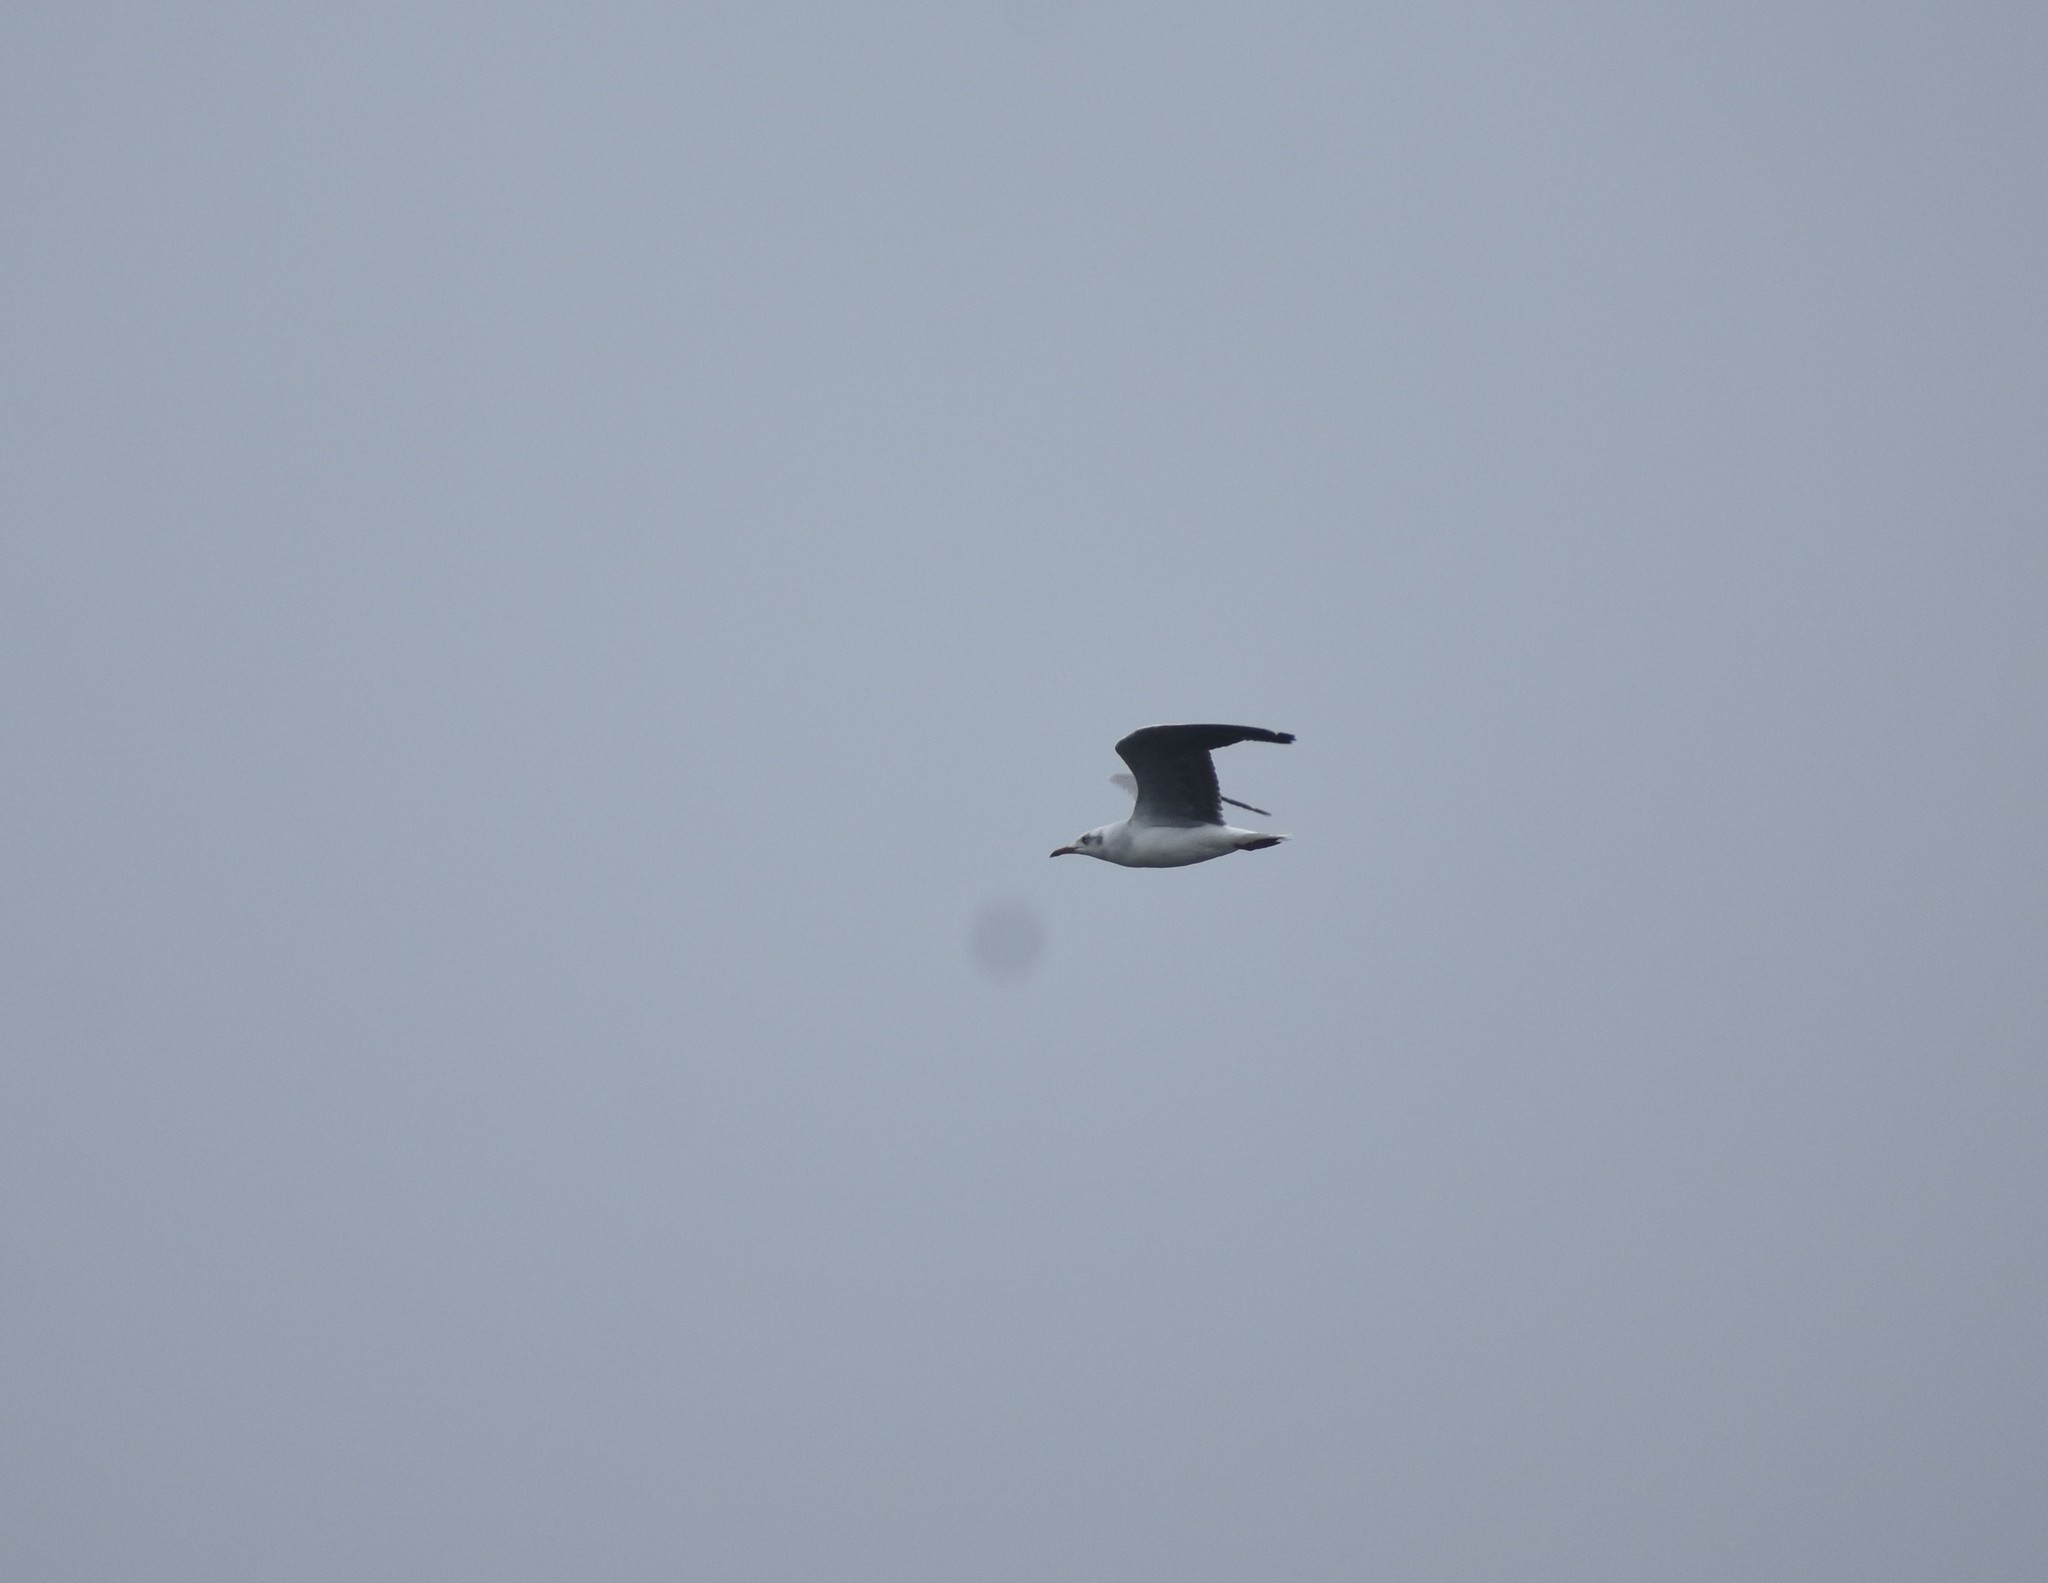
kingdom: Animalia
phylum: Chordata
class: Aves
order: Charadriiformes
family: Laridae
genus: Chroicocephalus
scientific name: Chroicocephalus cirrocephalus
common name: Grey-headed gull
